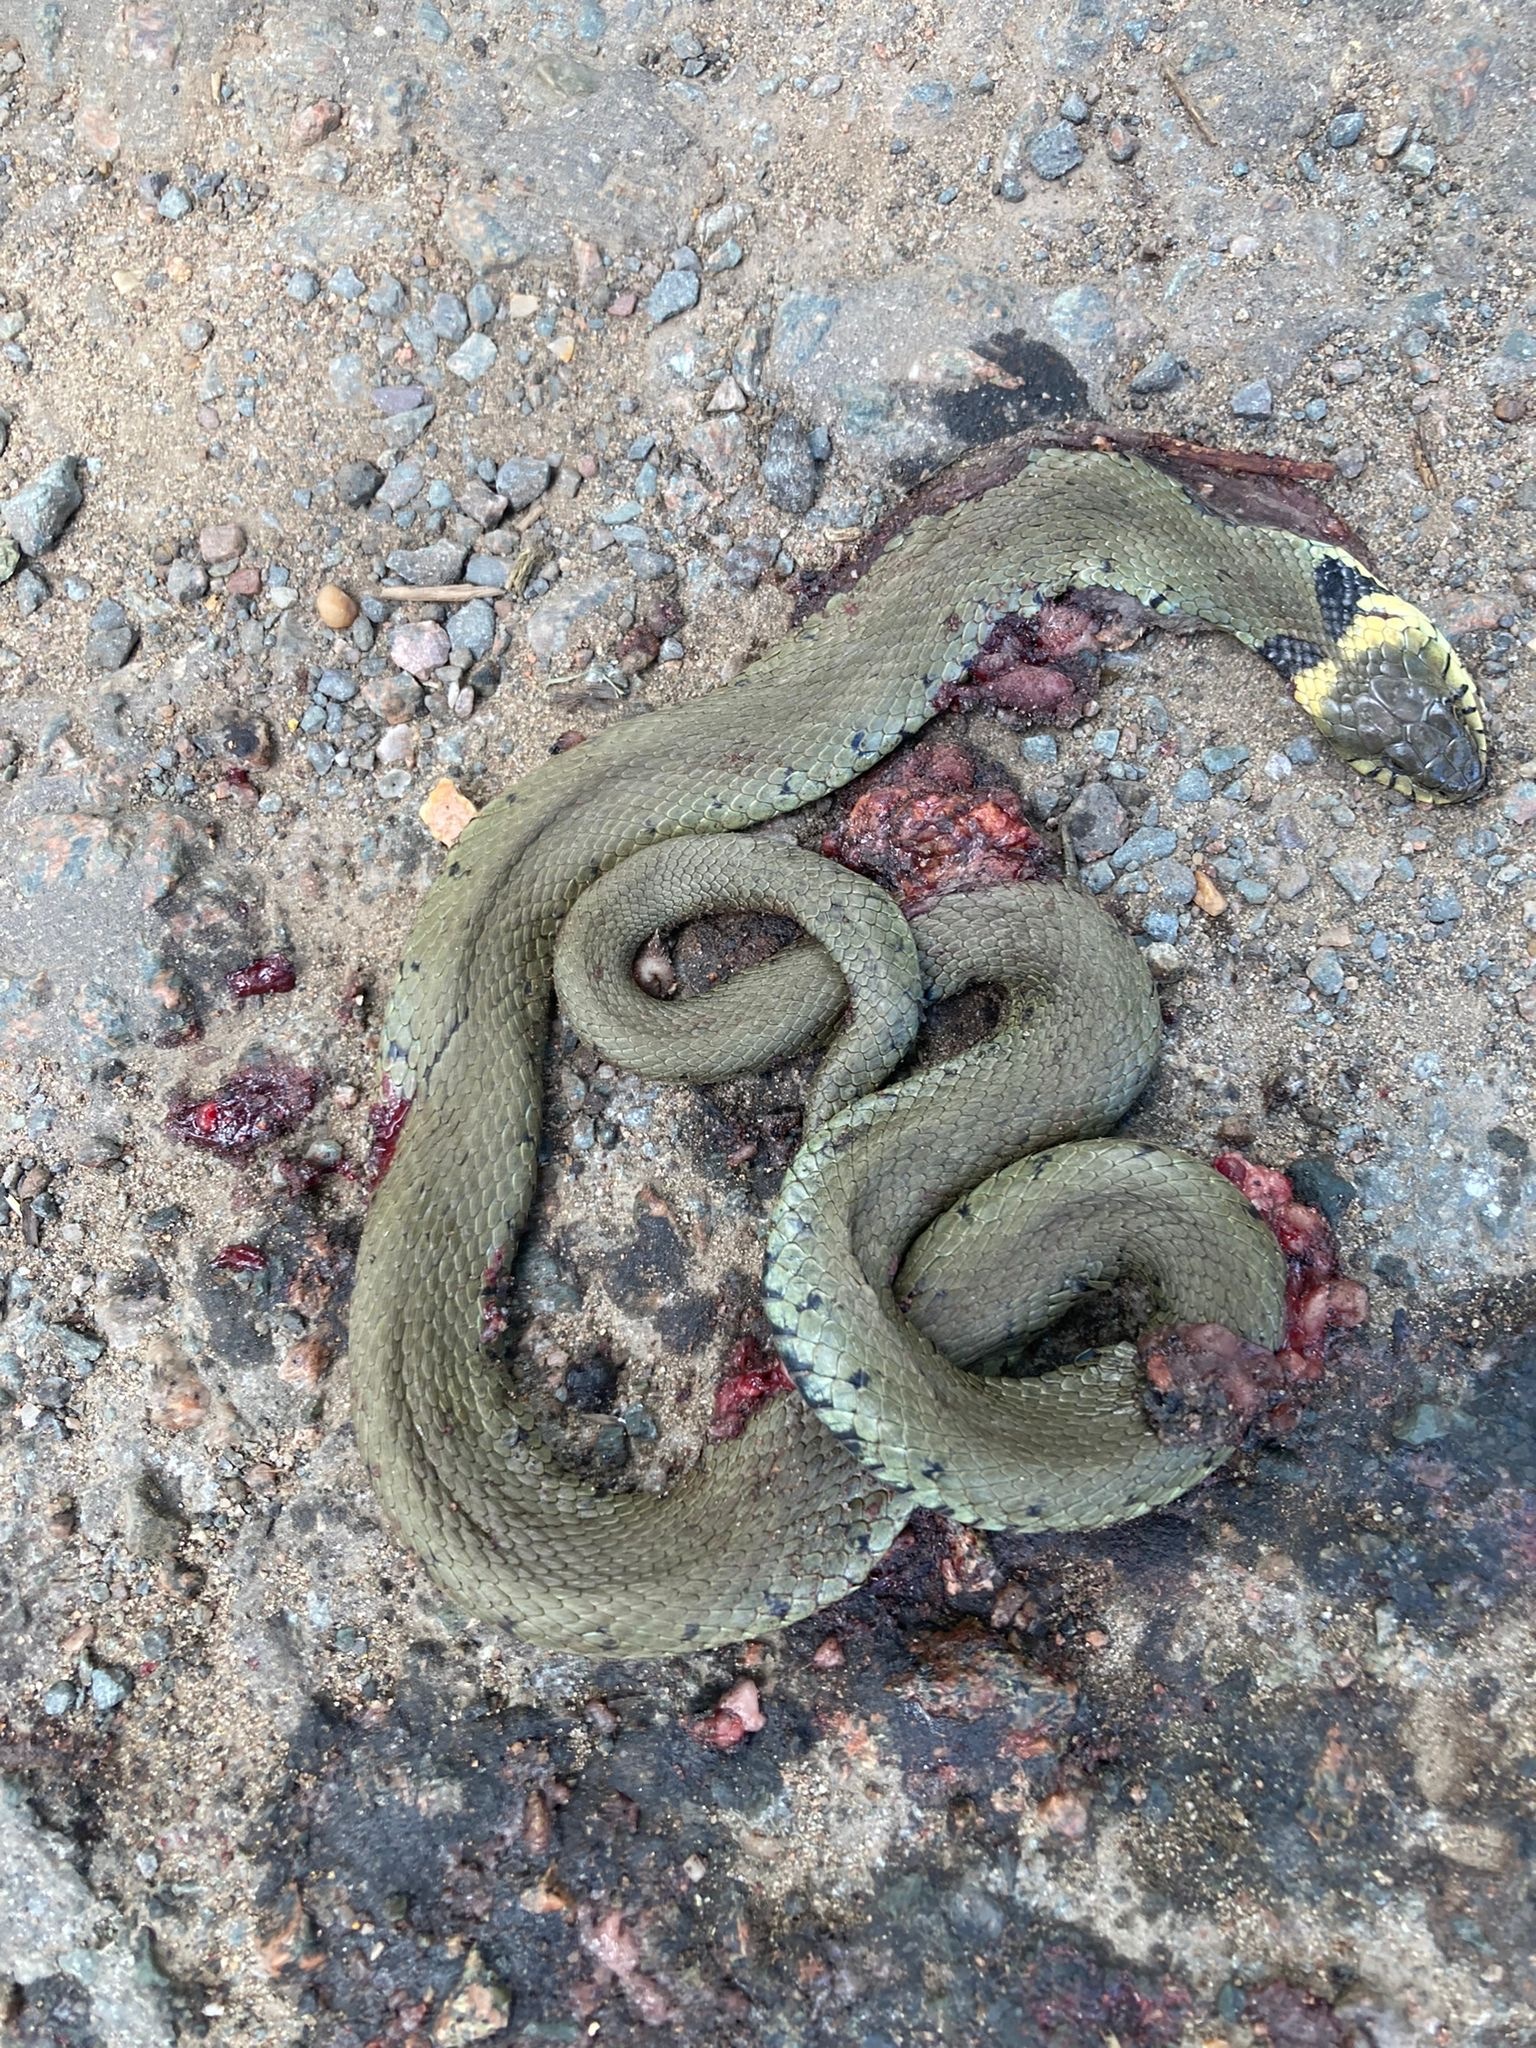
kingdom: Animalia
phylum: Chordata
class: Squamata
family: Colubridae
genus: Natrix
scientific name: Natrix helvetica
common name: Banded grass snake
